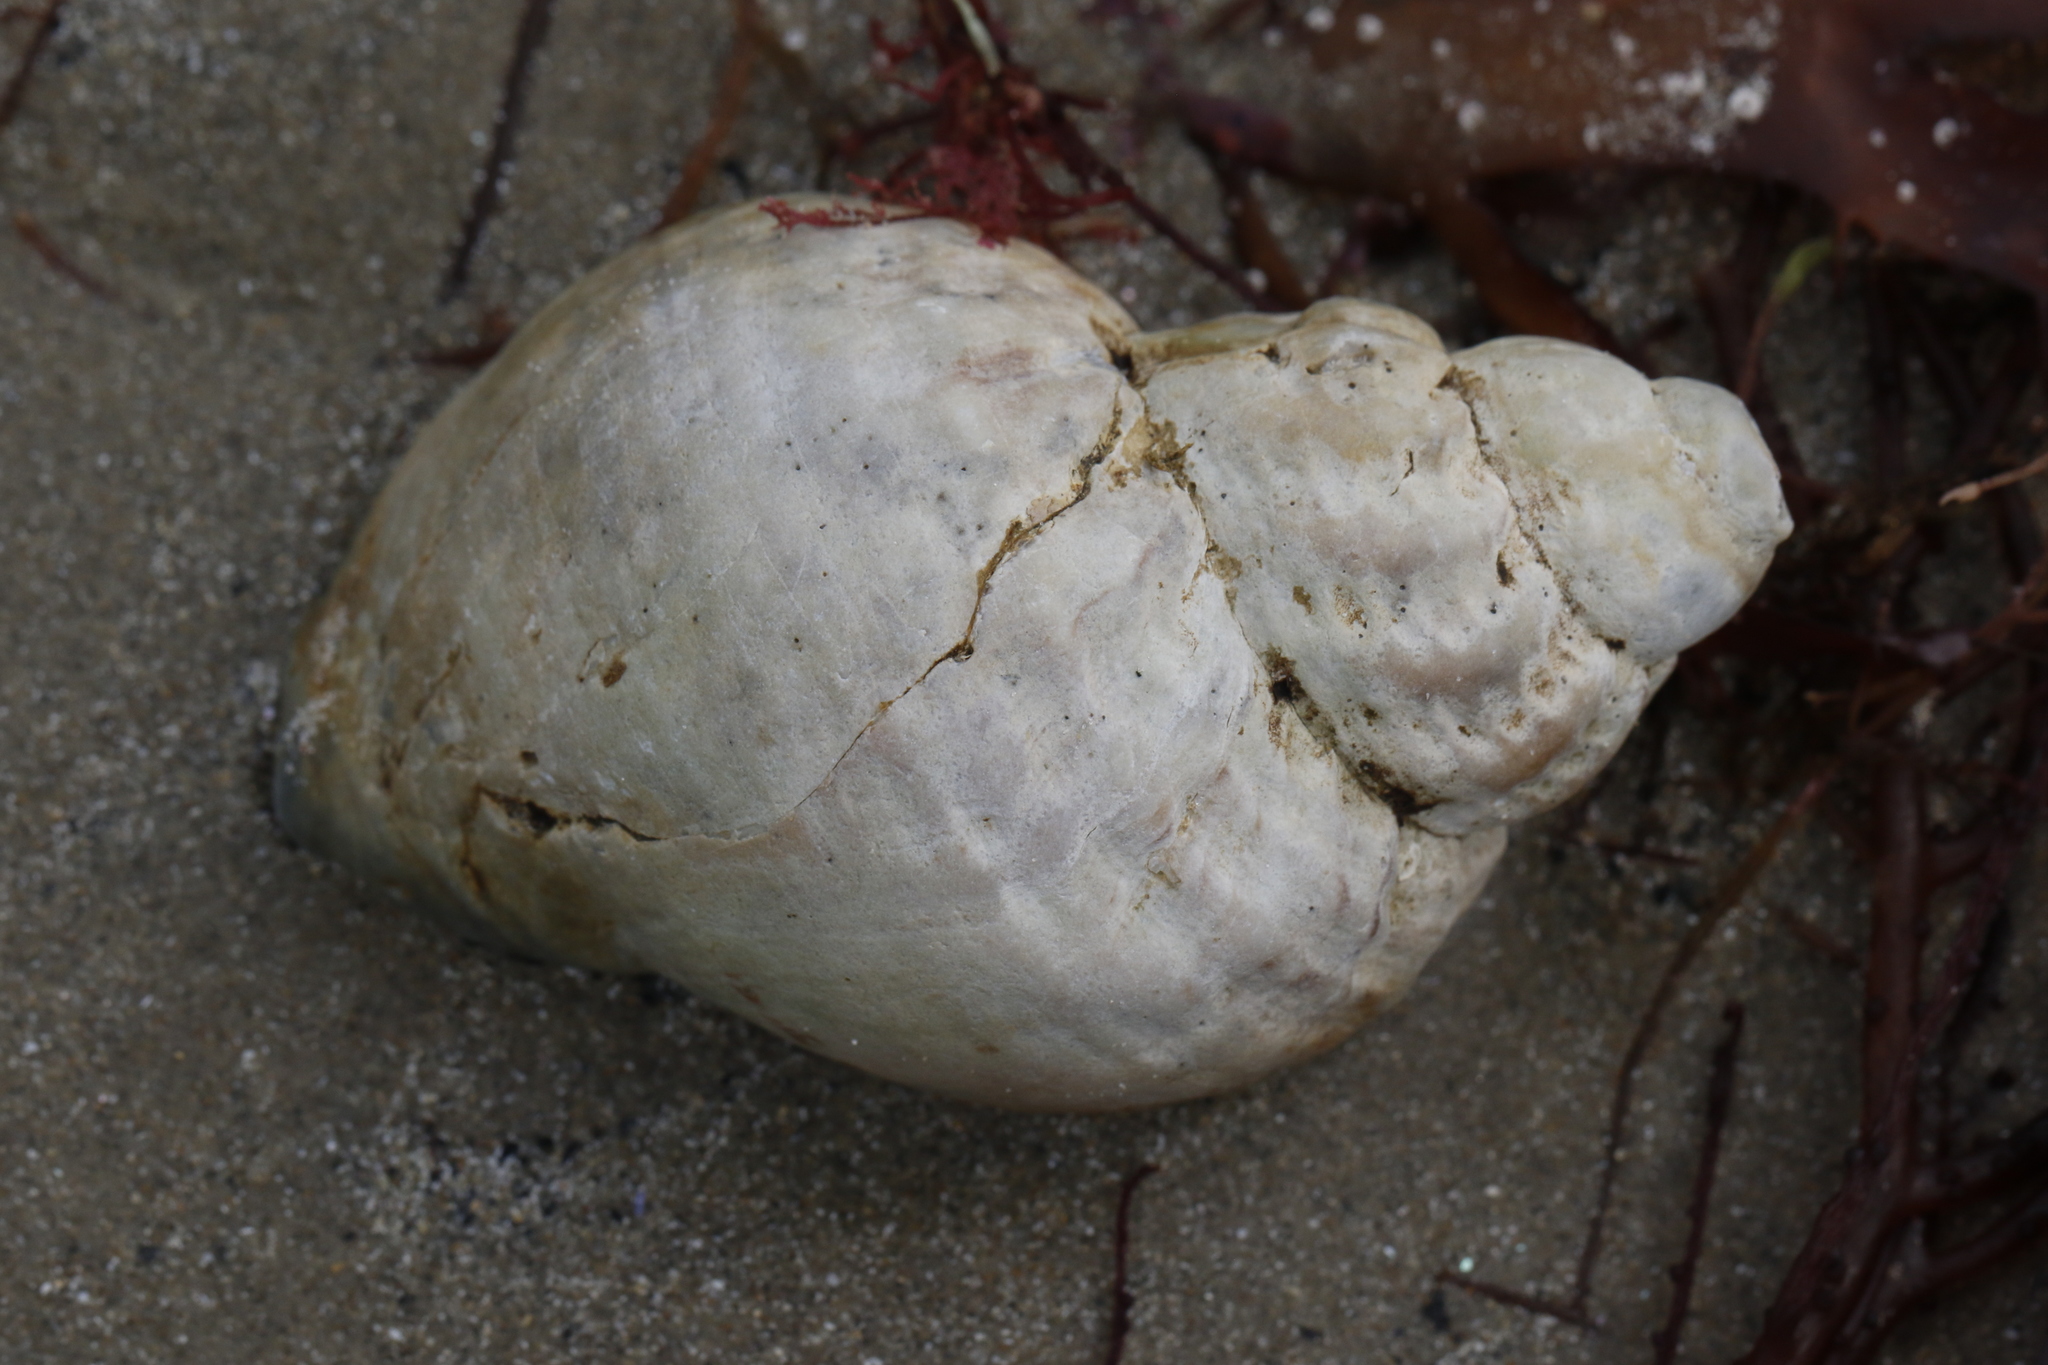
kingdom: Animalia
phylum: Mollusca
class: Gastropoda
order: Neogastropoda
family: Buccinidae
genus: Buccinum
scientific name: Buccinum undatum
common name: Common whelk
